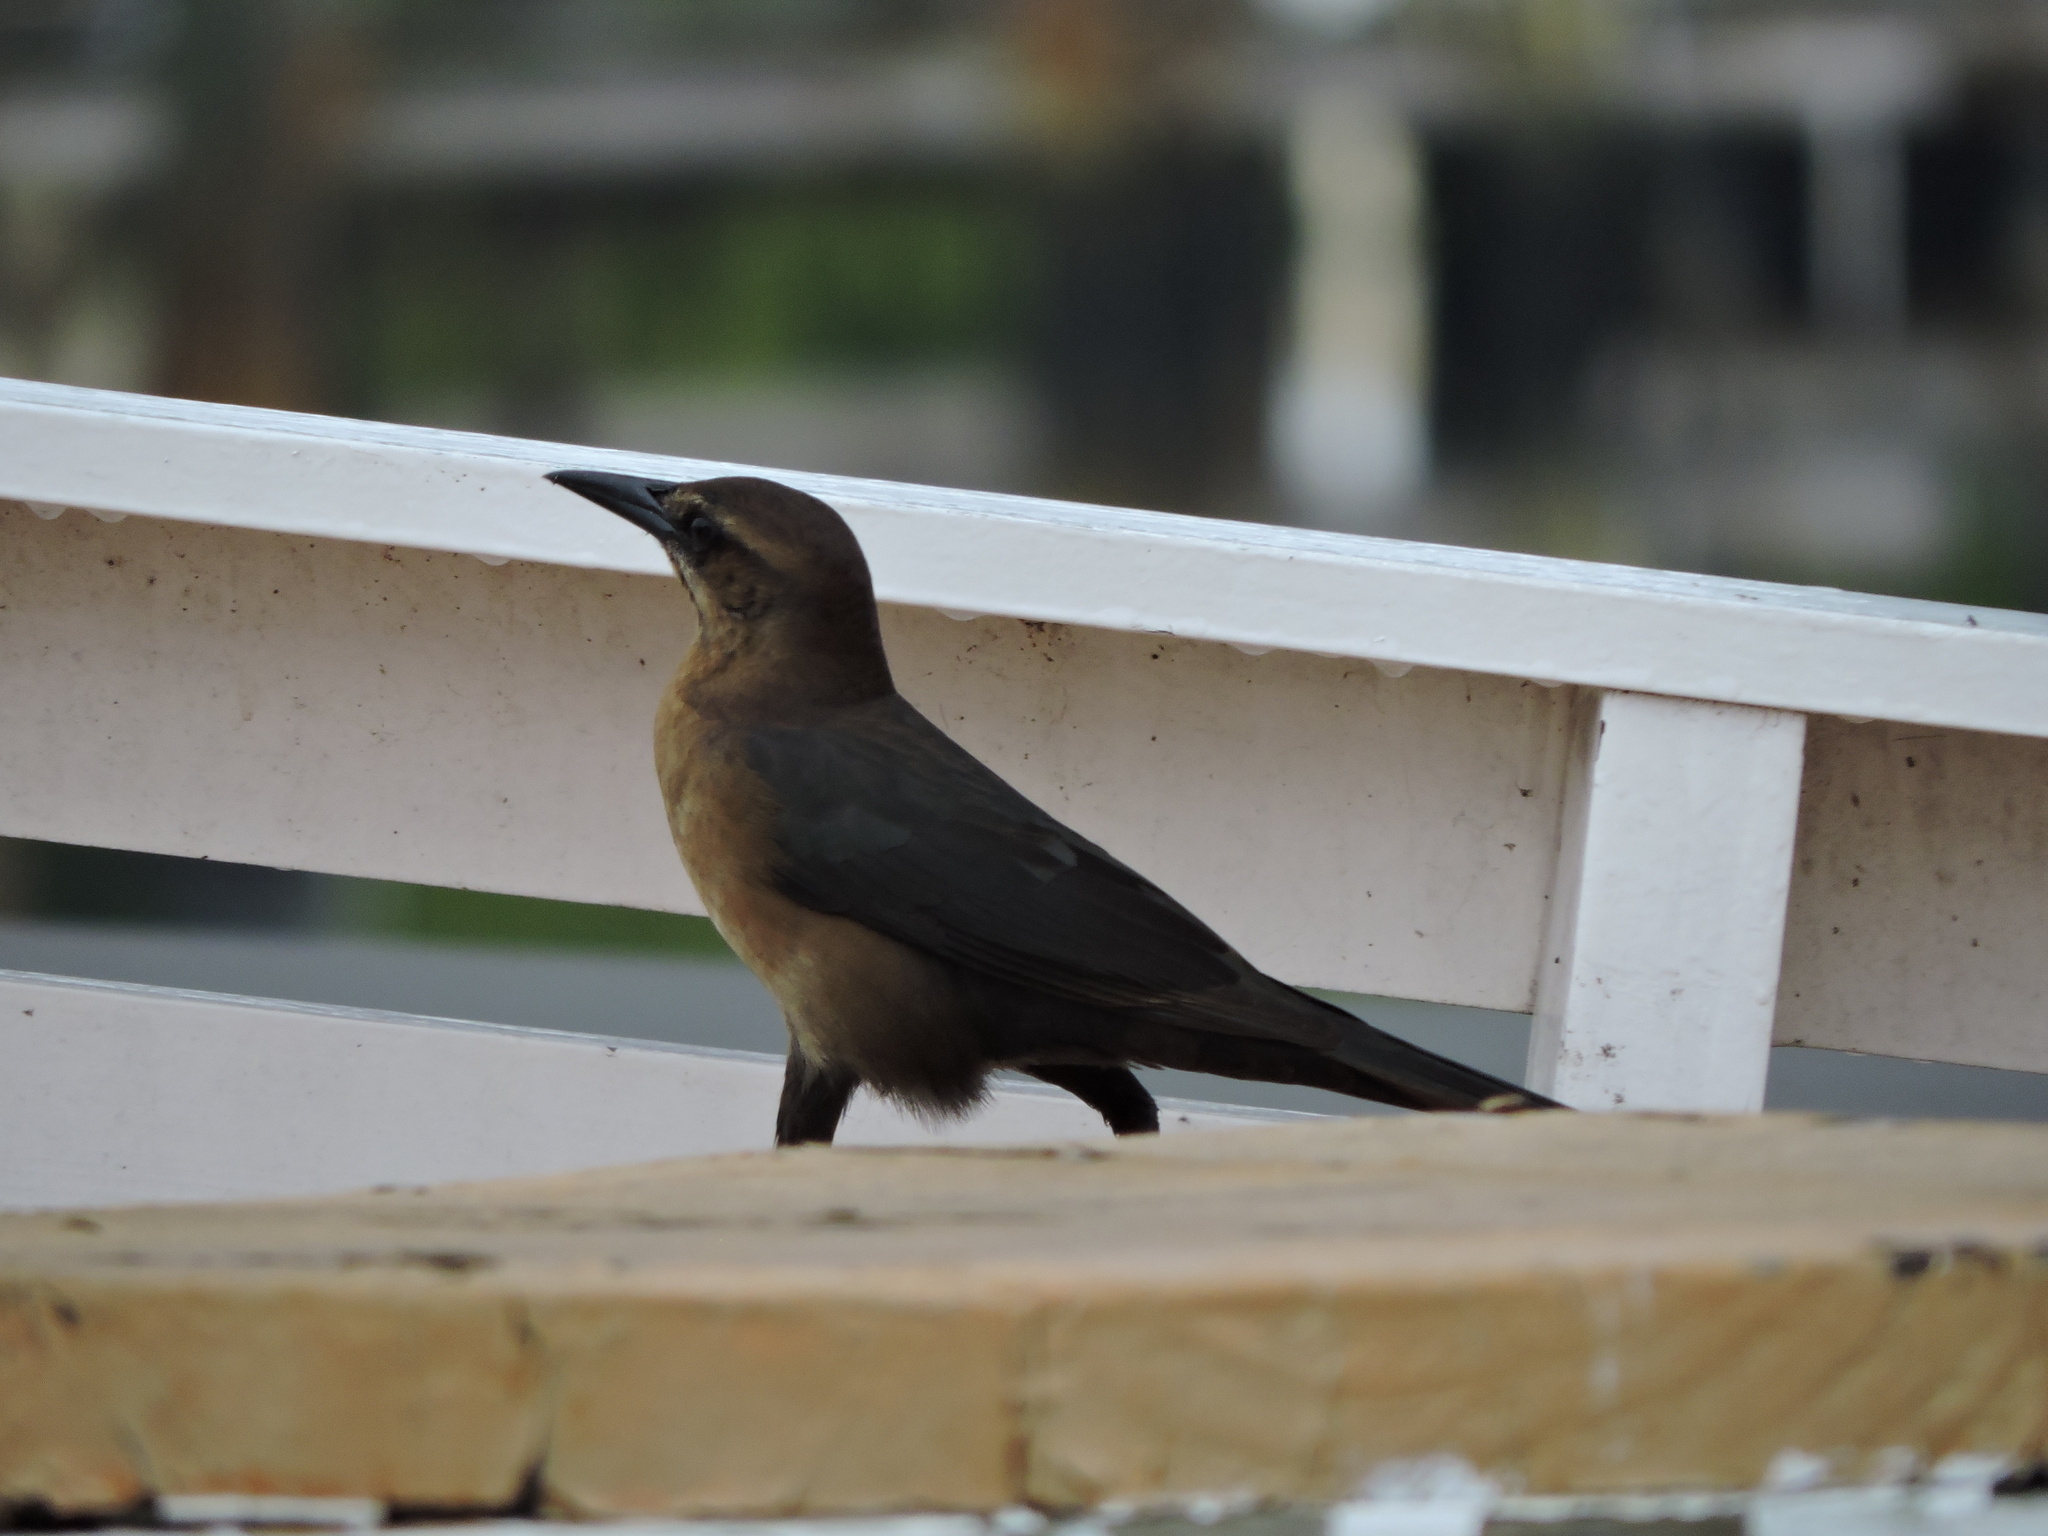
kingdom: Animalia
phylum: Chordata
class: Aves
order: Passeriformes
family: Icteridae
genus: Quiscalus
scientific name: Quiscalus major
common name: Boat-tailed grackle
